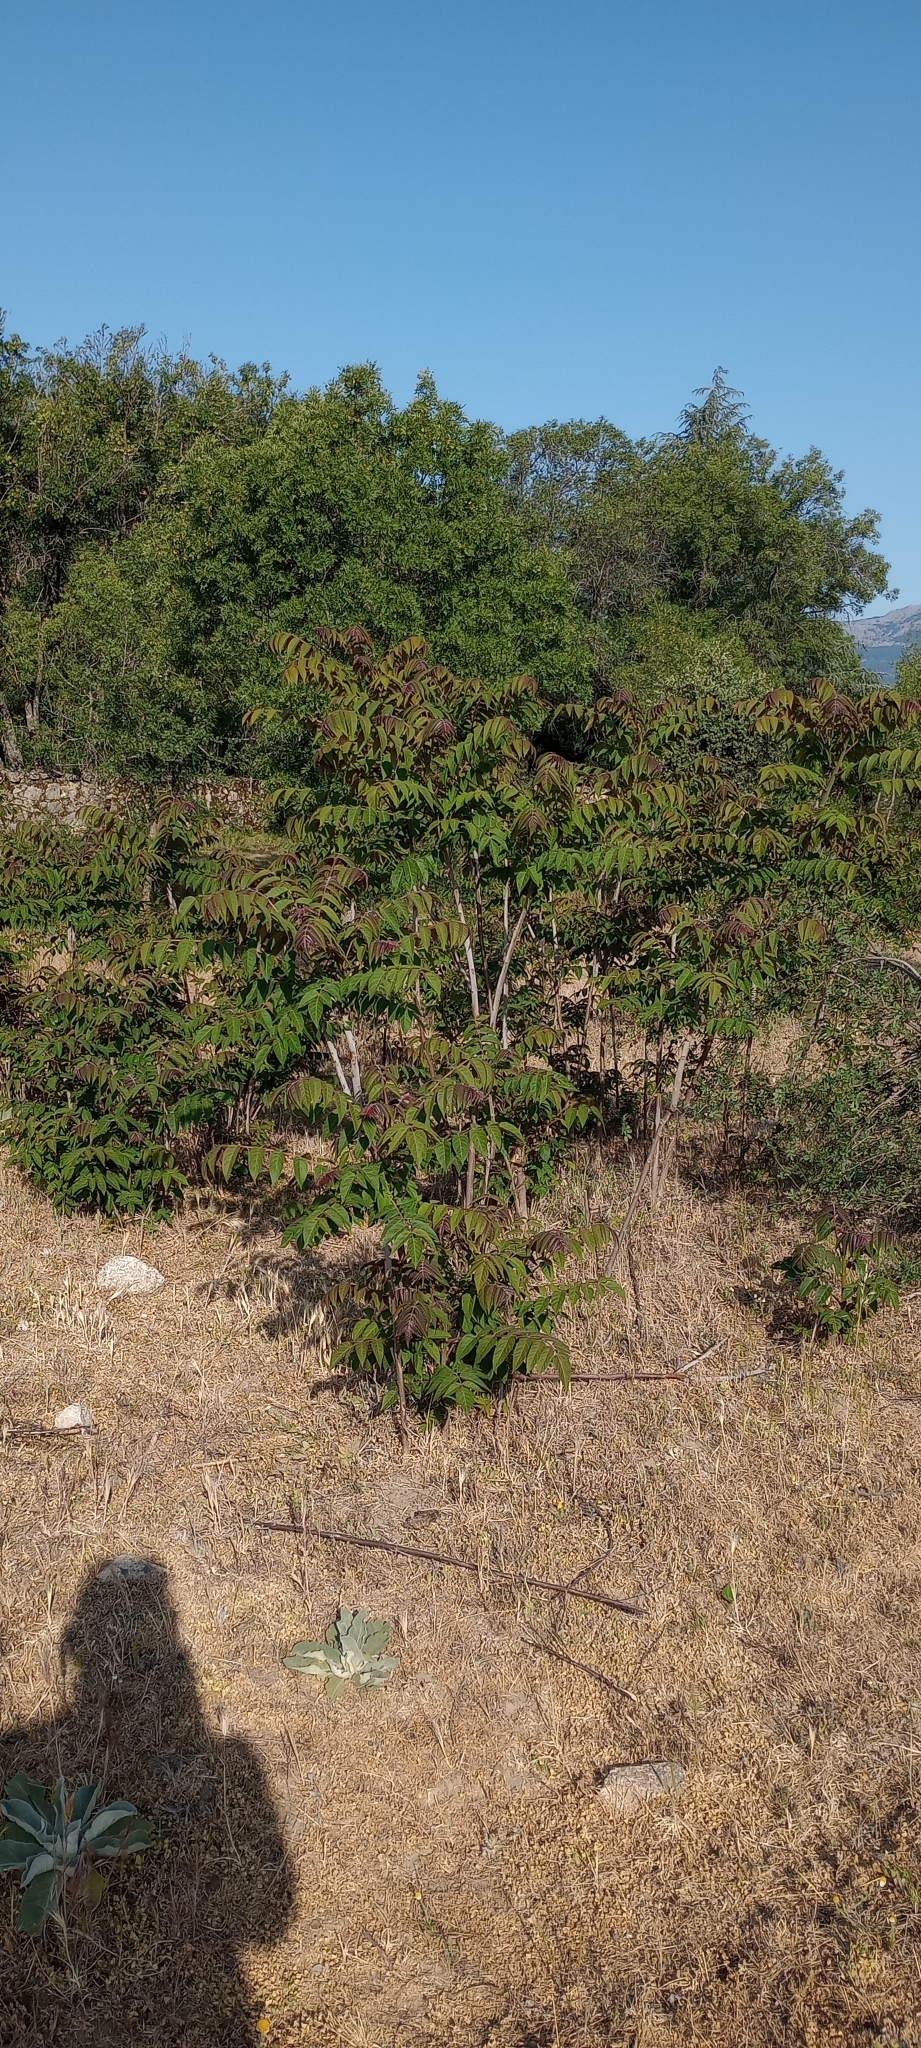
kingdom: Plantae
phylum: Tracheophyta
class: Magnoliopsida
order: Sapindales
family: Simaroubaceae
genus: Ailanthus
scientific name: Ailanthus altissima
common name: Tree-of-heaven
